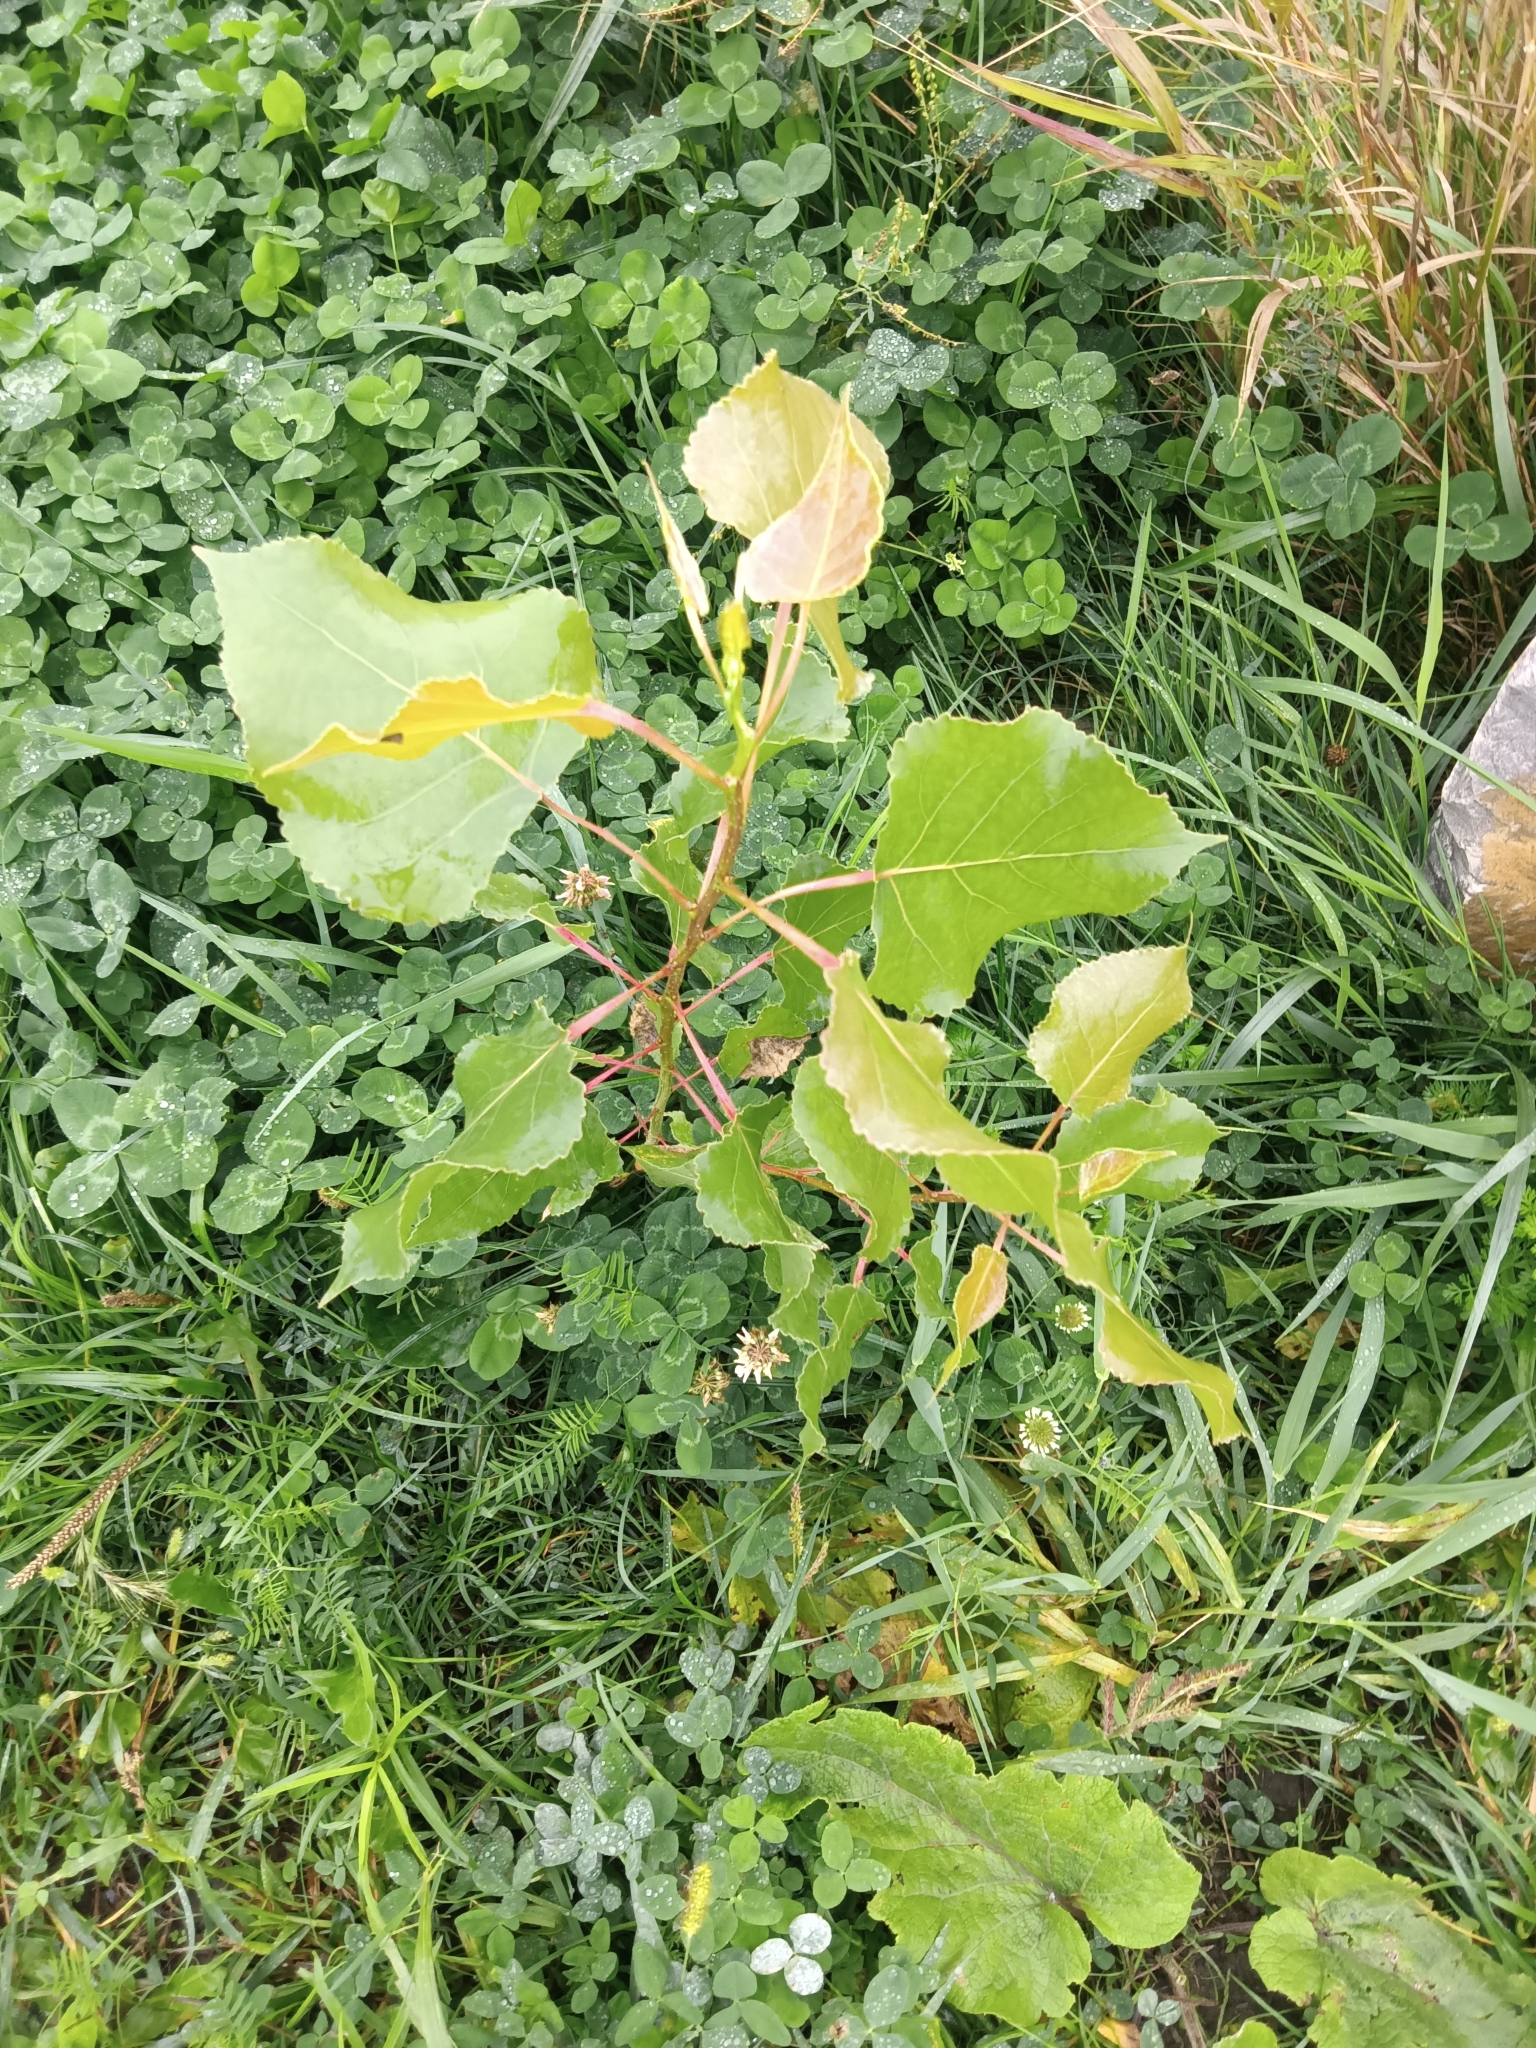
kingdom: Plantae
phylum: Tracheophyta
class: Magnoliopsida
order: Malpighiales
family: Salicaceae
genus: Populus
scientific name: Populus deltoides
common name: Eastern cottonwood
